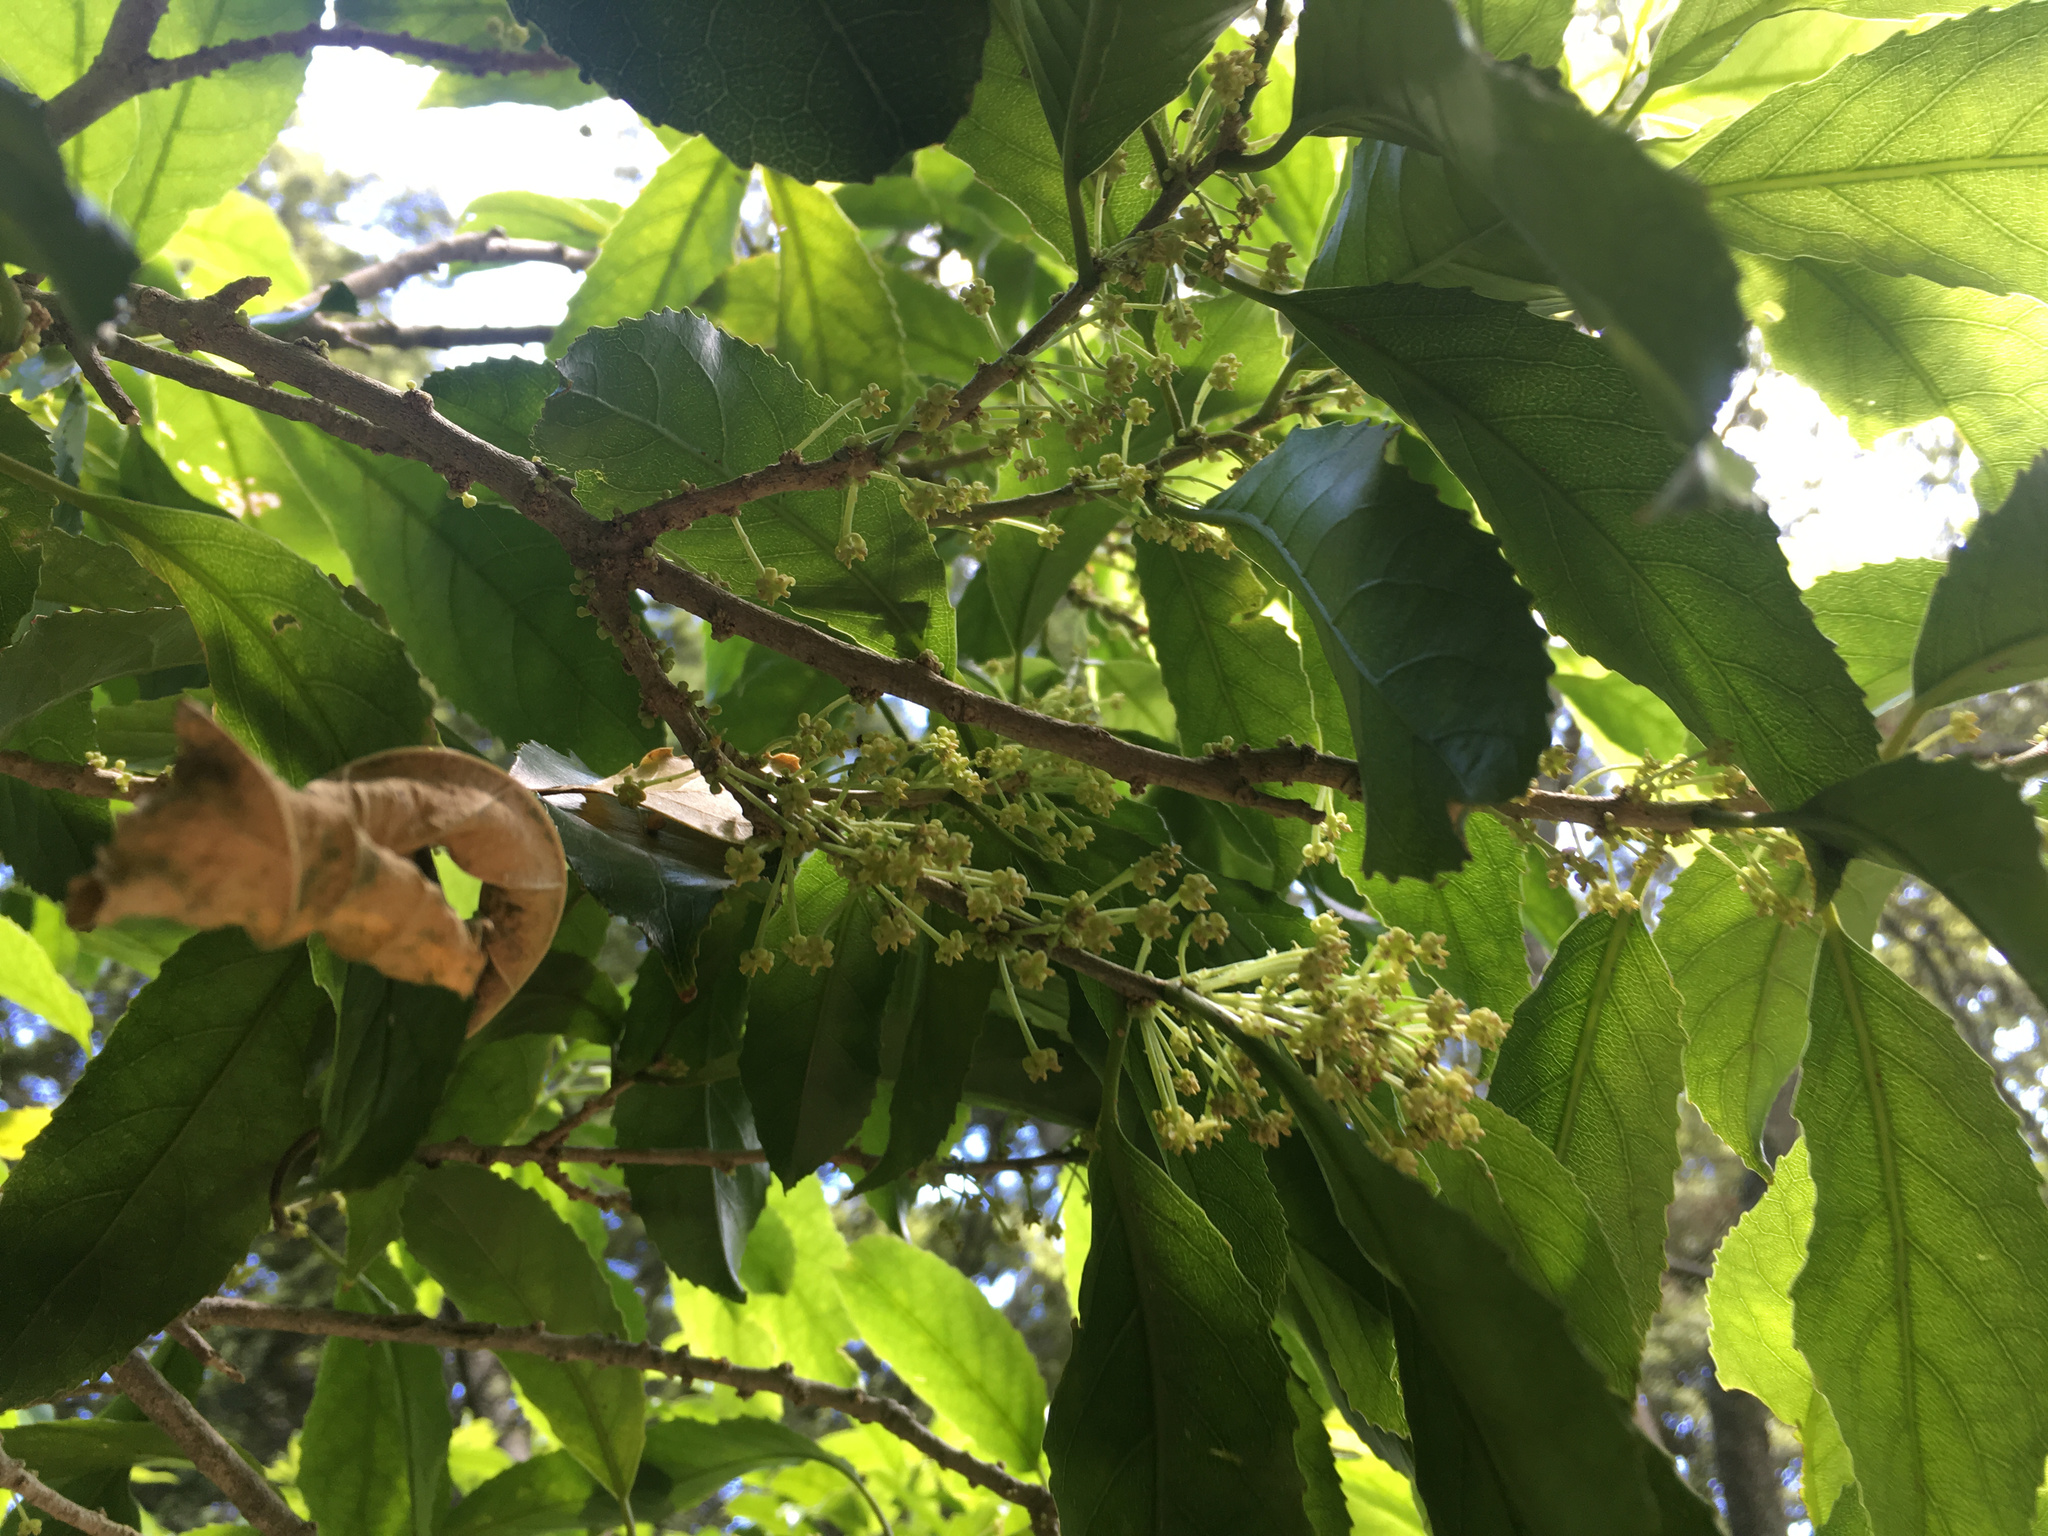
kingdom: Plantae
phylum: Tracheophyta
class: Magnoliopsida
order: Malpighiales
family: Violaceae
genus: Melicytus
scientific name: Melicytus ramiflorus
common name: Mahoe
